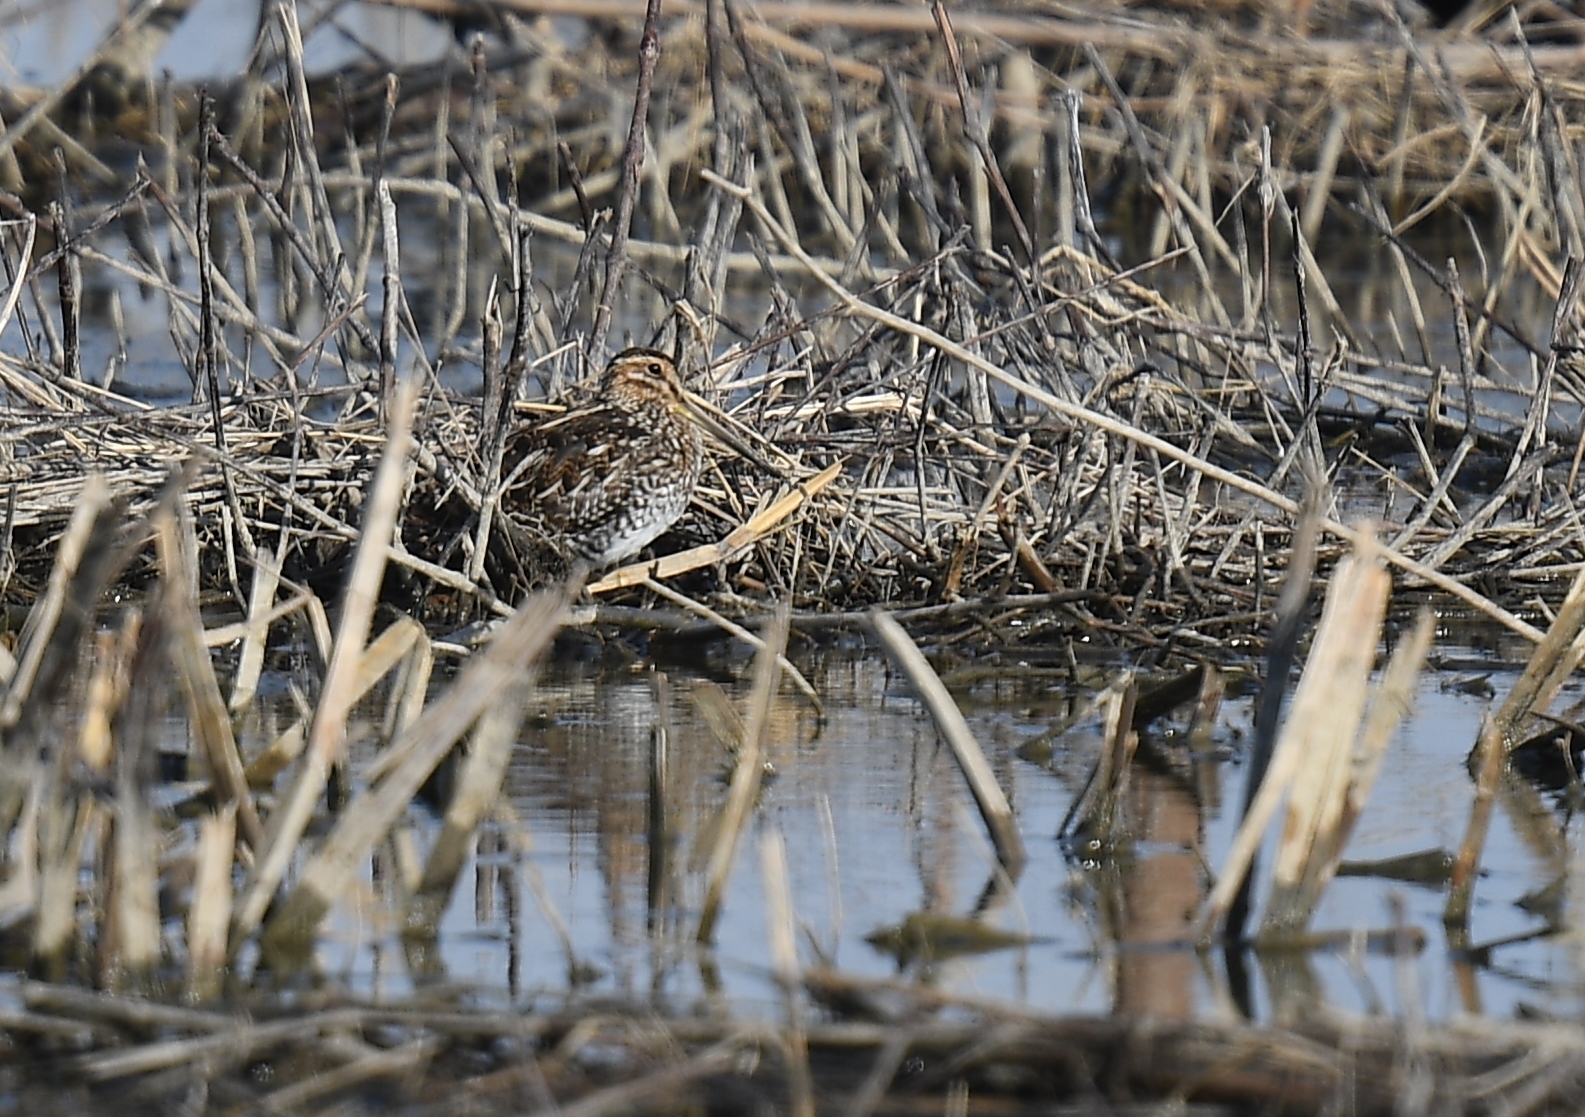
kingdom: Animalia
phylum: Chordata
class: Aves
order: Charadriiformes
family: Scolopacidae
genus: Gallinago
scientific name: Gallinago delicata
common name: Wilson's snipe
